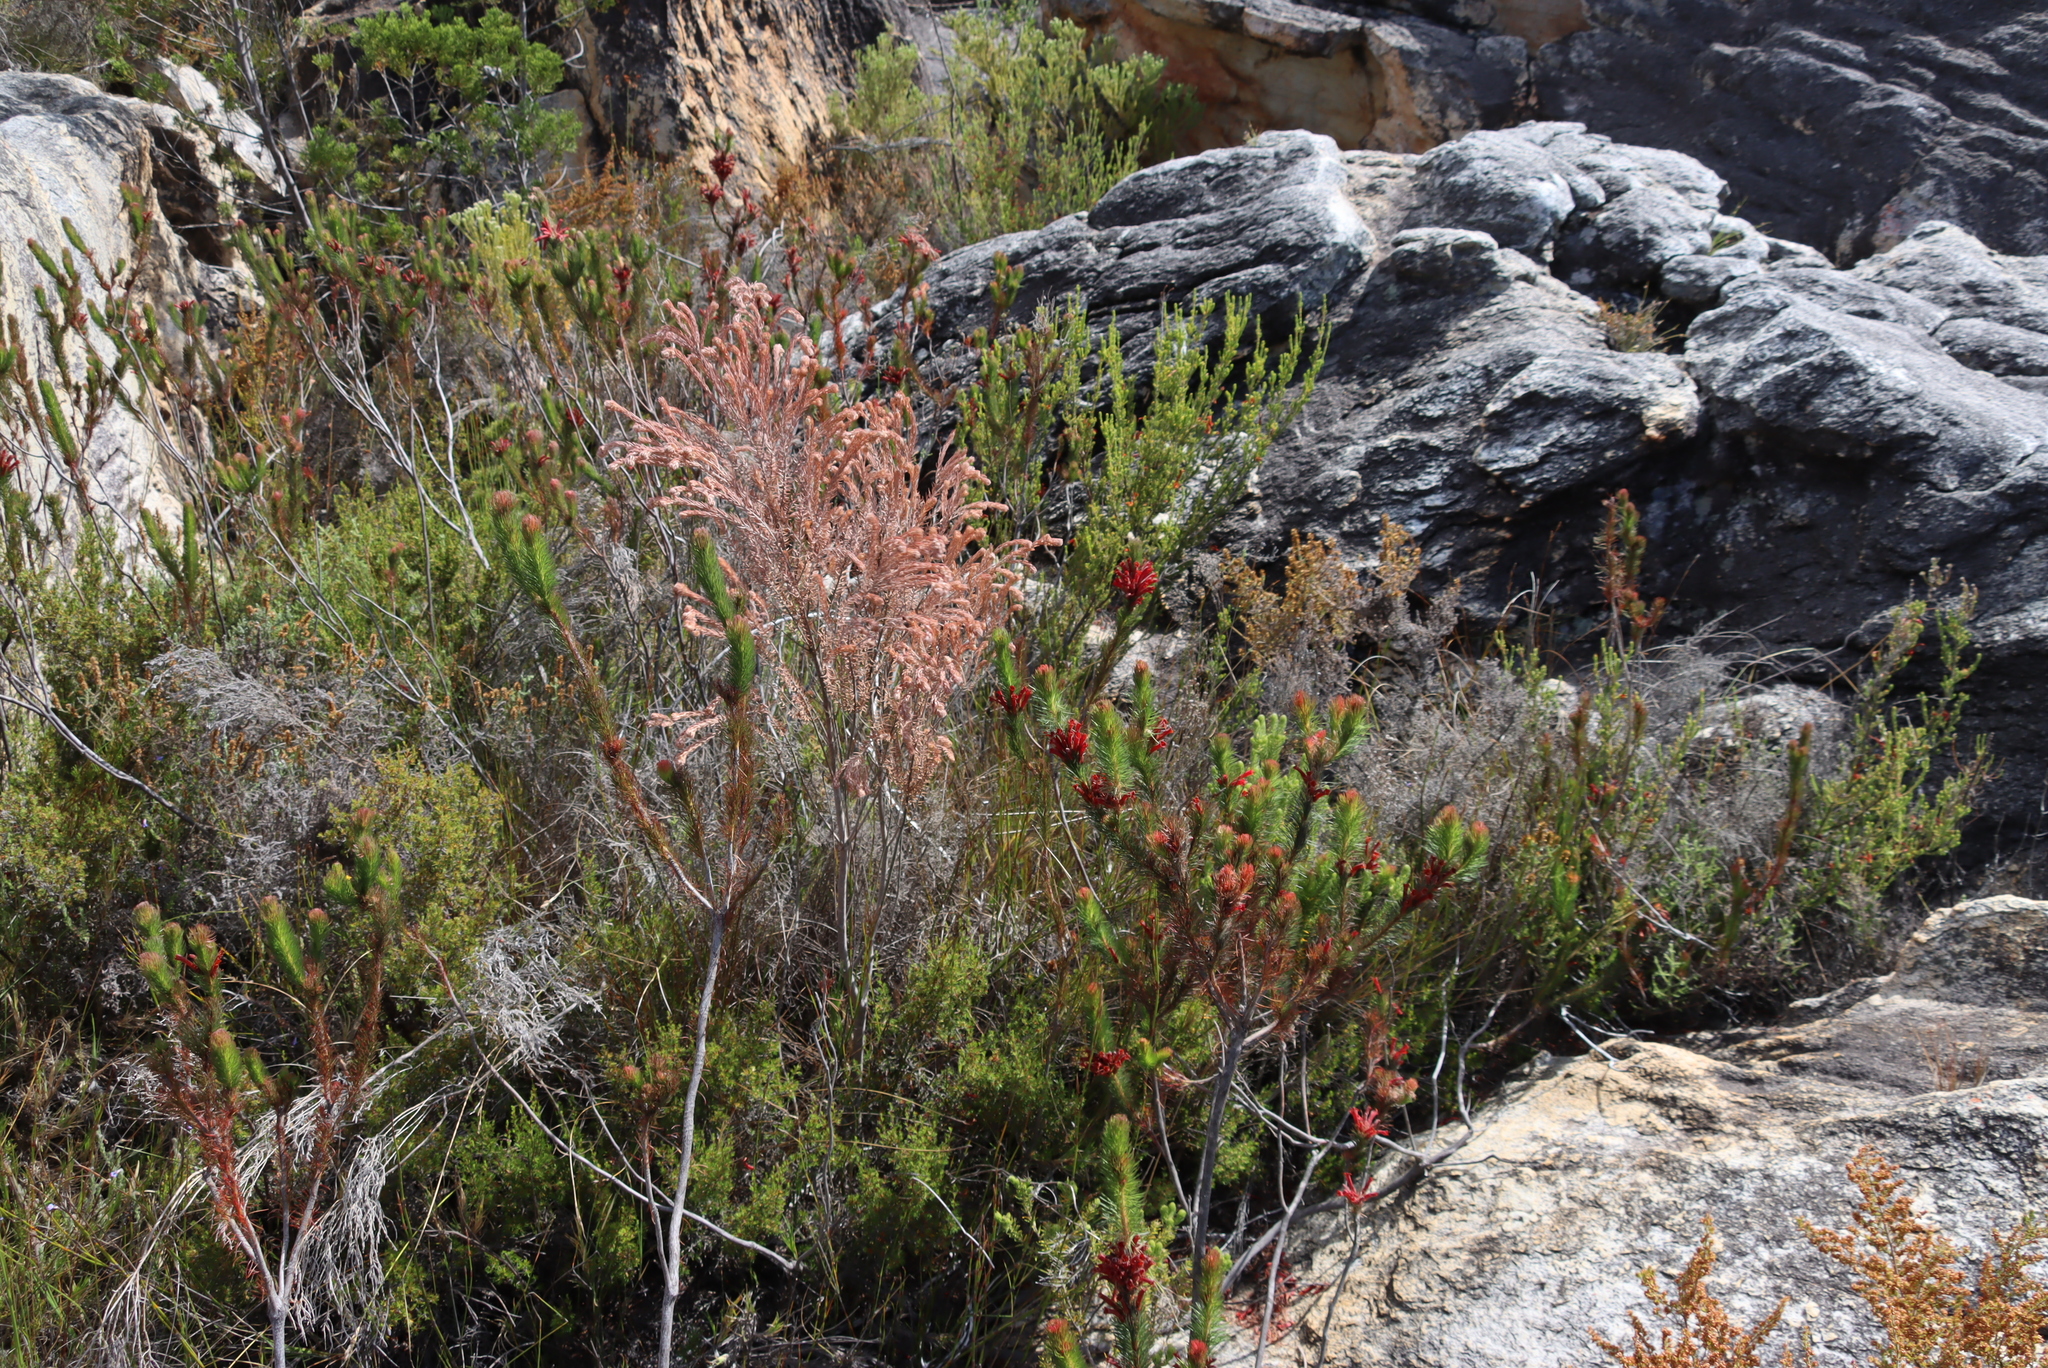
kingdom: Plantae
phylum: Tracheophyta
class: Magnoliopsida
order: Ericales
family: Ericaceae
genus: Erica
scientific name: Erica vestita
